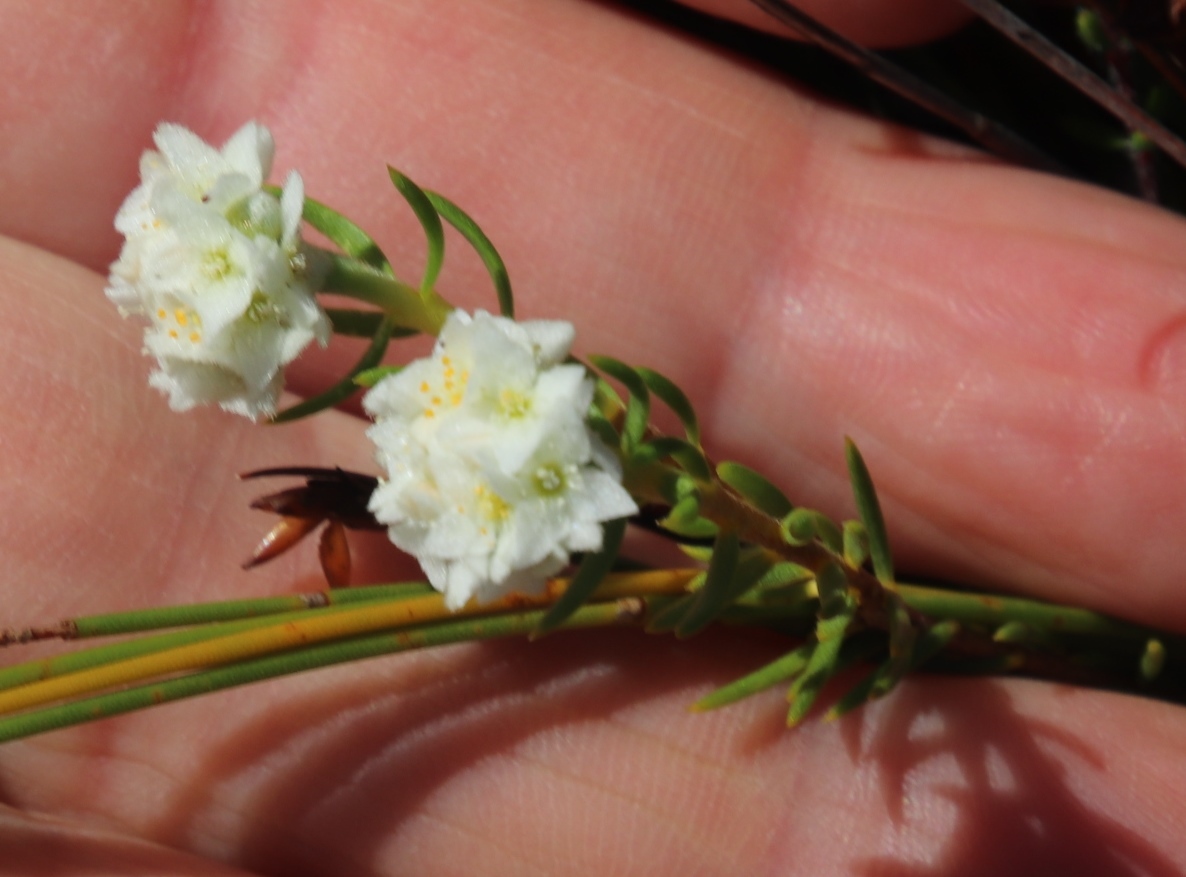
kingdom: Plantae
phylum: Tracheophyta
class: Magnoliopsida
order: Malvales
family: Thymelaeaceae
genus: Lachnaea
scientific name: Lachnaea densiflora
